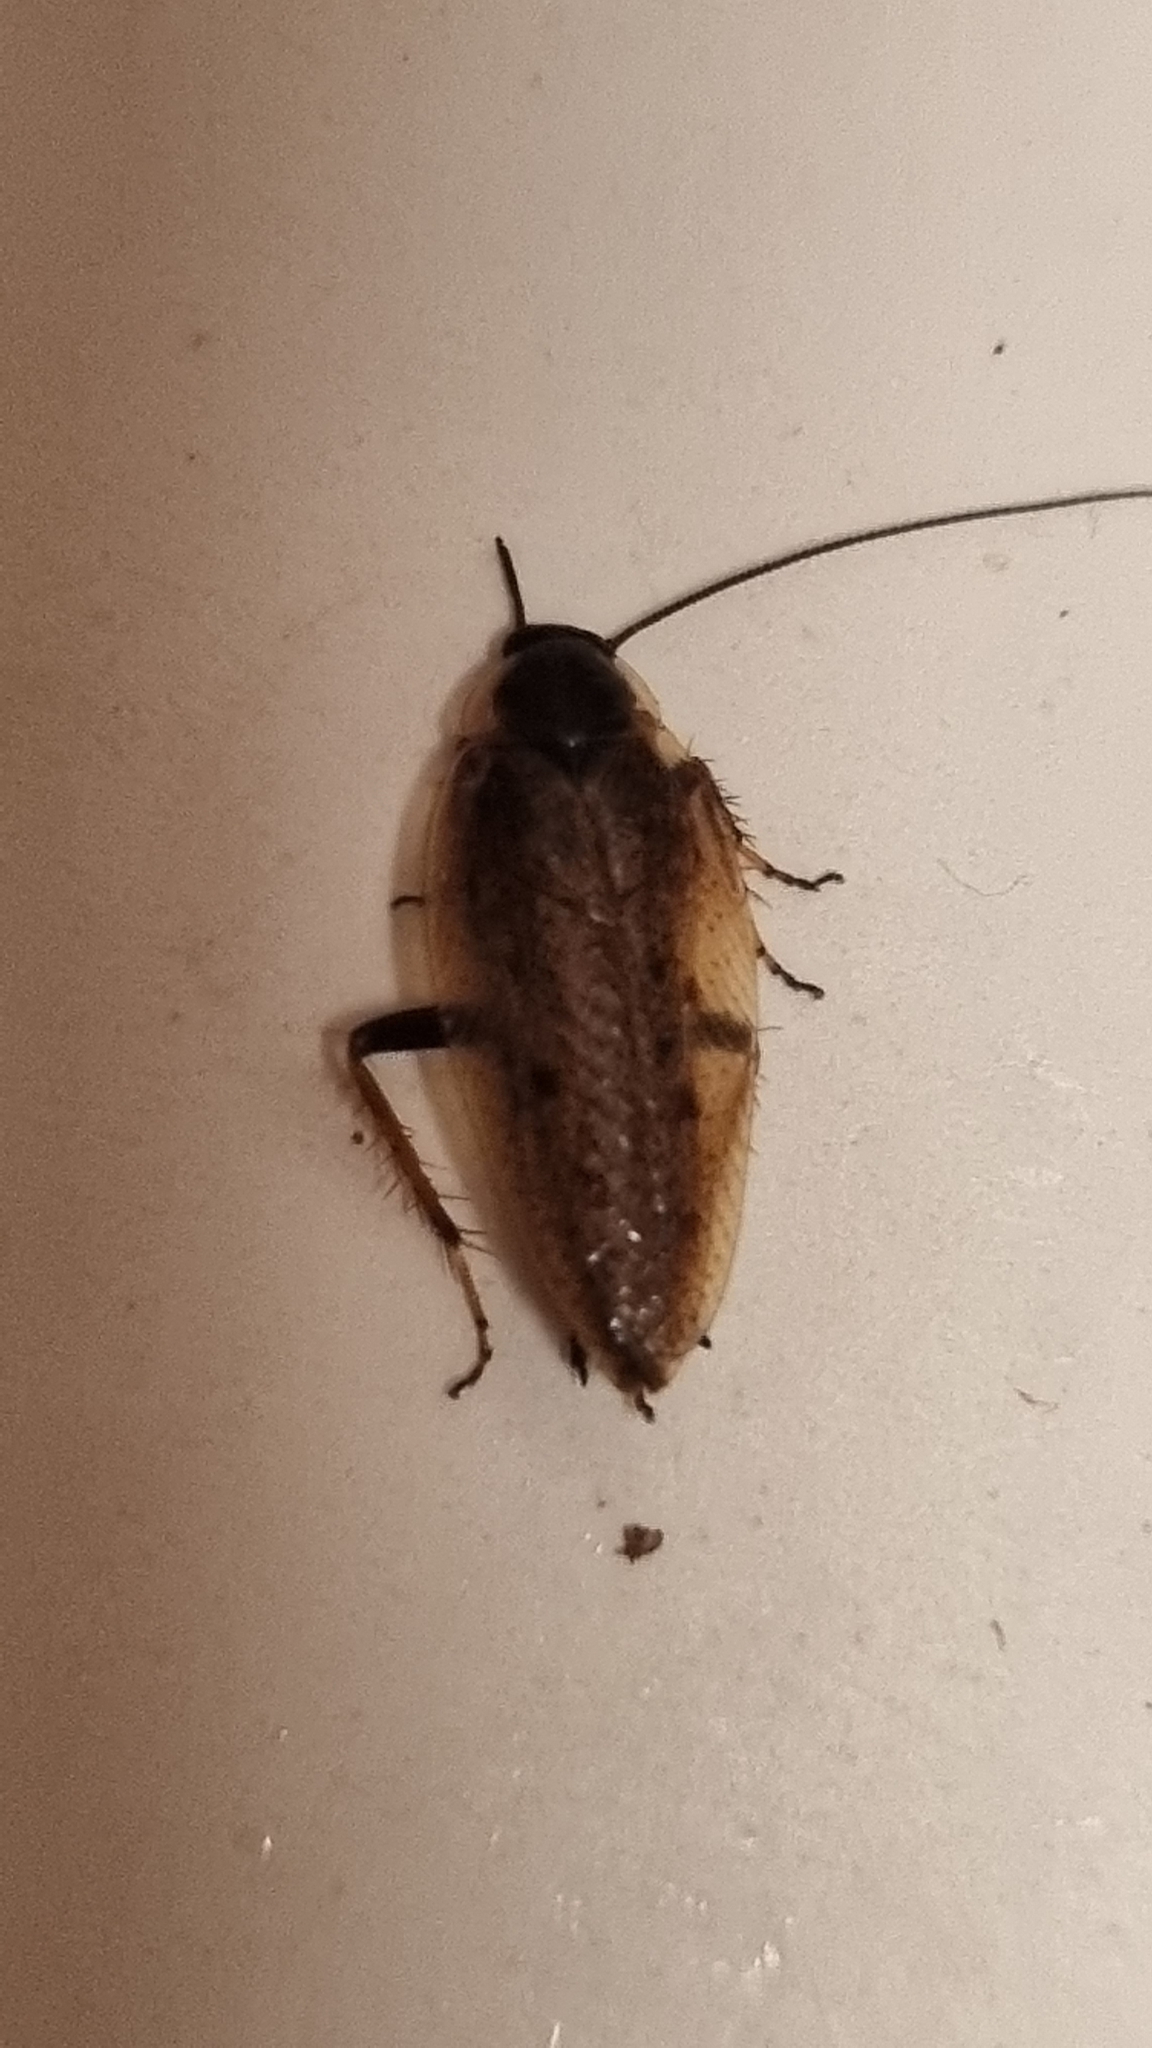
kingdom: Animalia
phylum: Arthropoda
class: Insecta
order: Blattodea
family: Ectobiidae
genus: Ectobius
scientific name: Ectobius lapponicus
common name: Dusky cockroach
